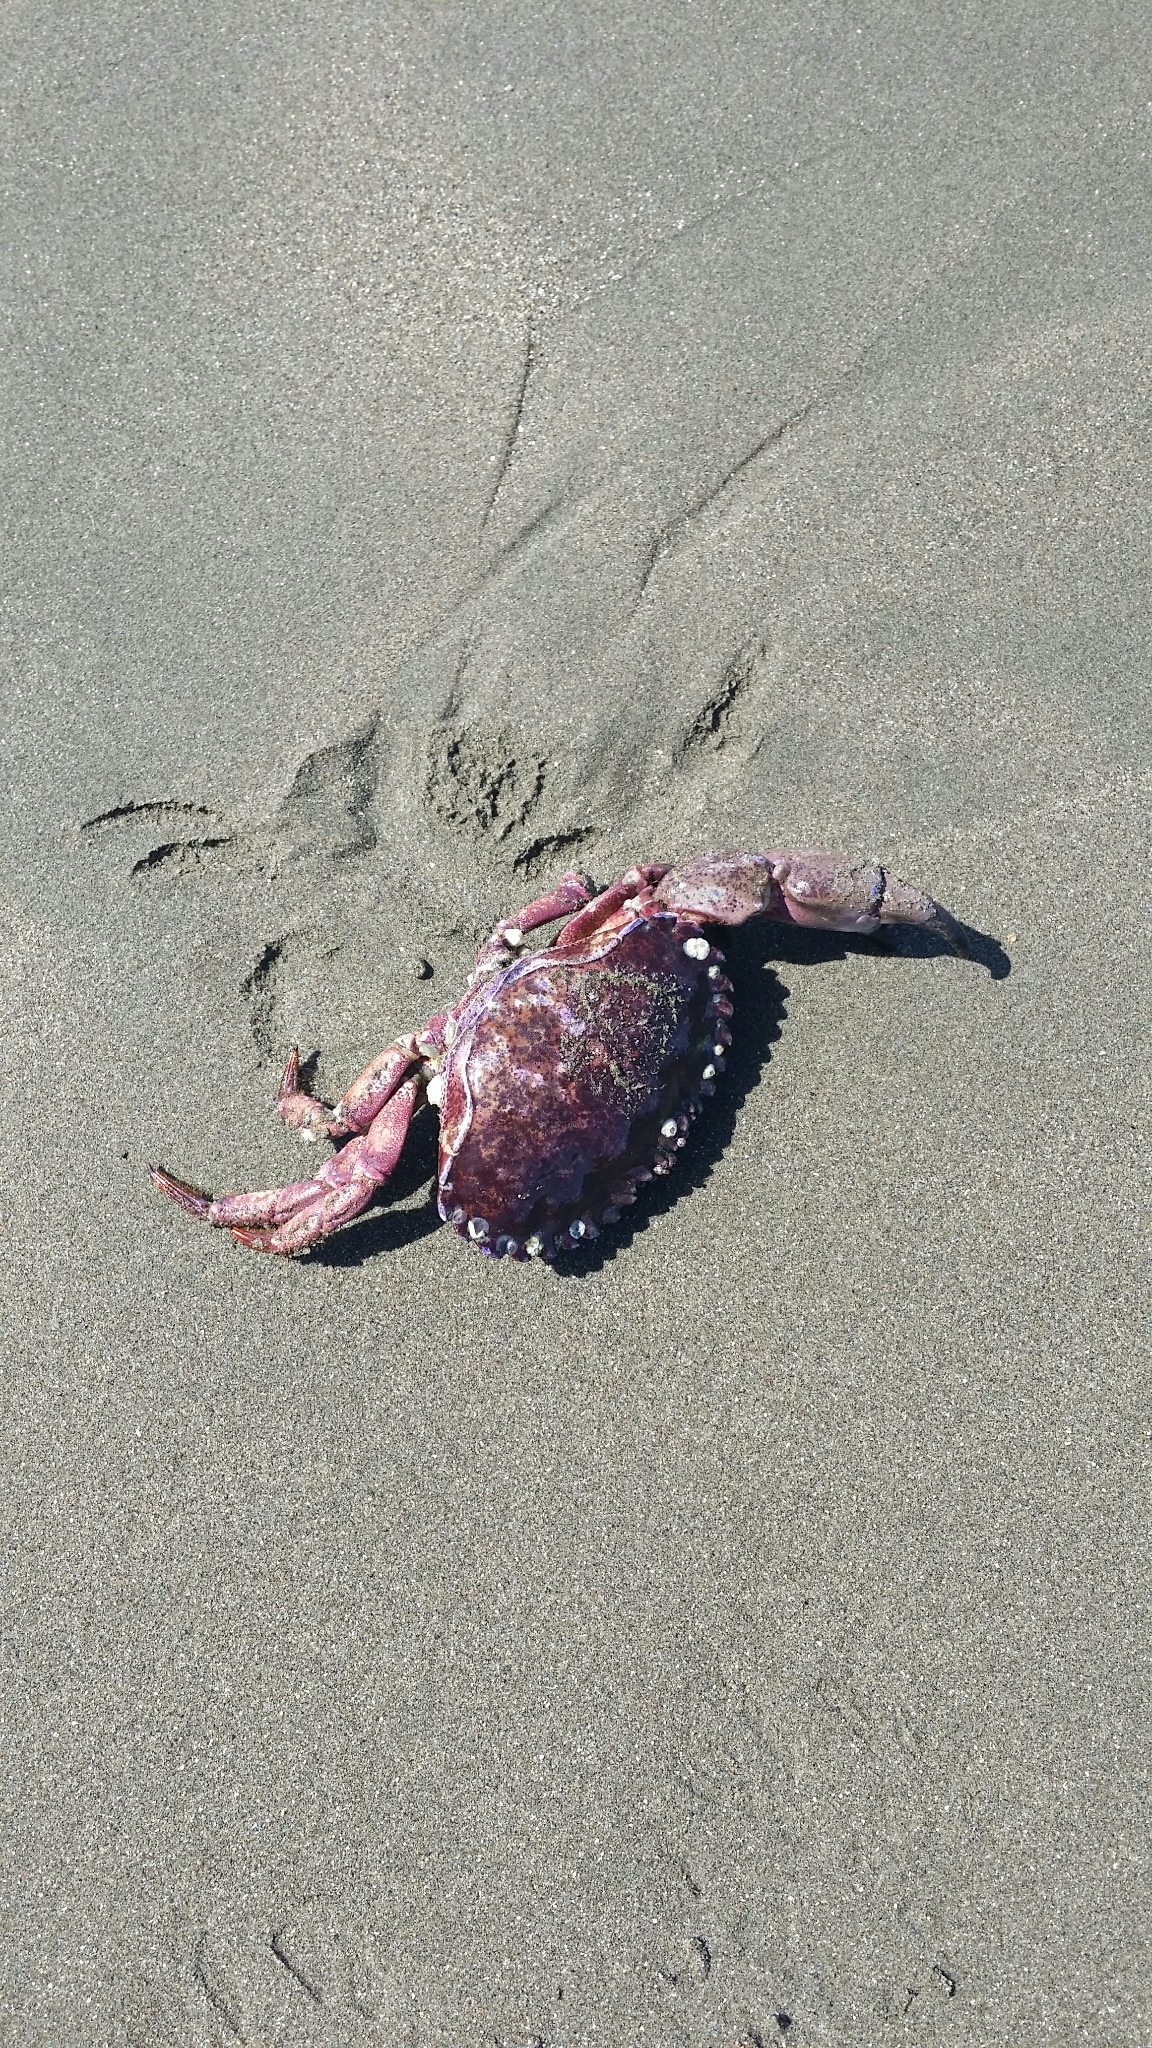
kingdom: Animalia
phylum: Arthropoda
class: Malacostraca
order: Decapoda
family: Cancridae
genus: Romaleon
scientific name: Romaleon antennarium
